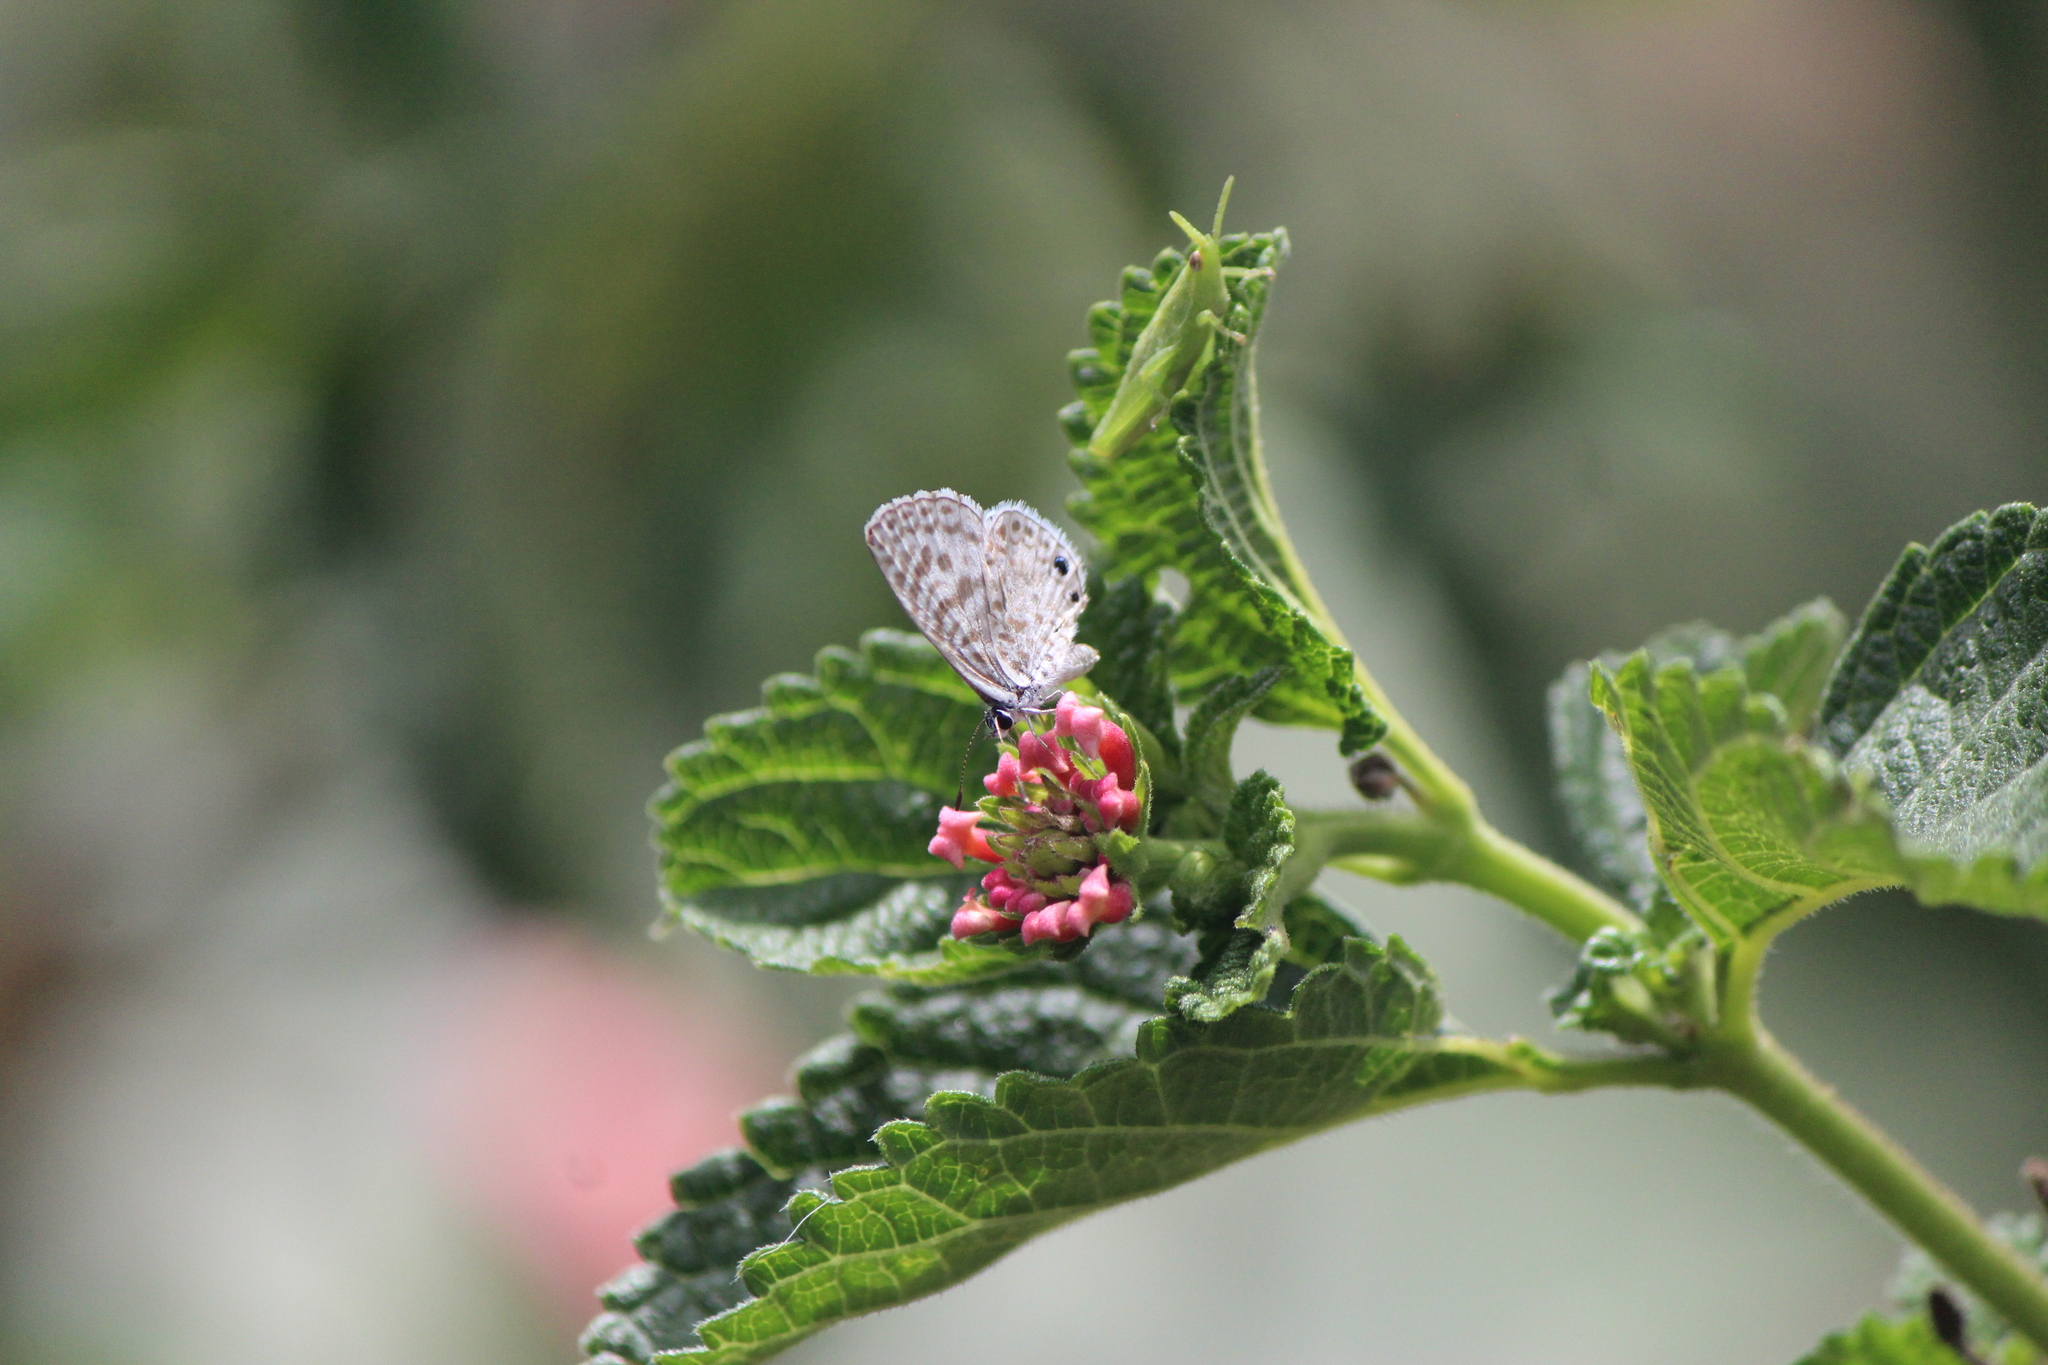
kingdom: Animalia
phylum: Arthropoda
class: Insecta
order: Lepidoptera
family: Lycaenidae
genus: Leptotes
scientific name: Leptotes marina
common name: Marine blue
